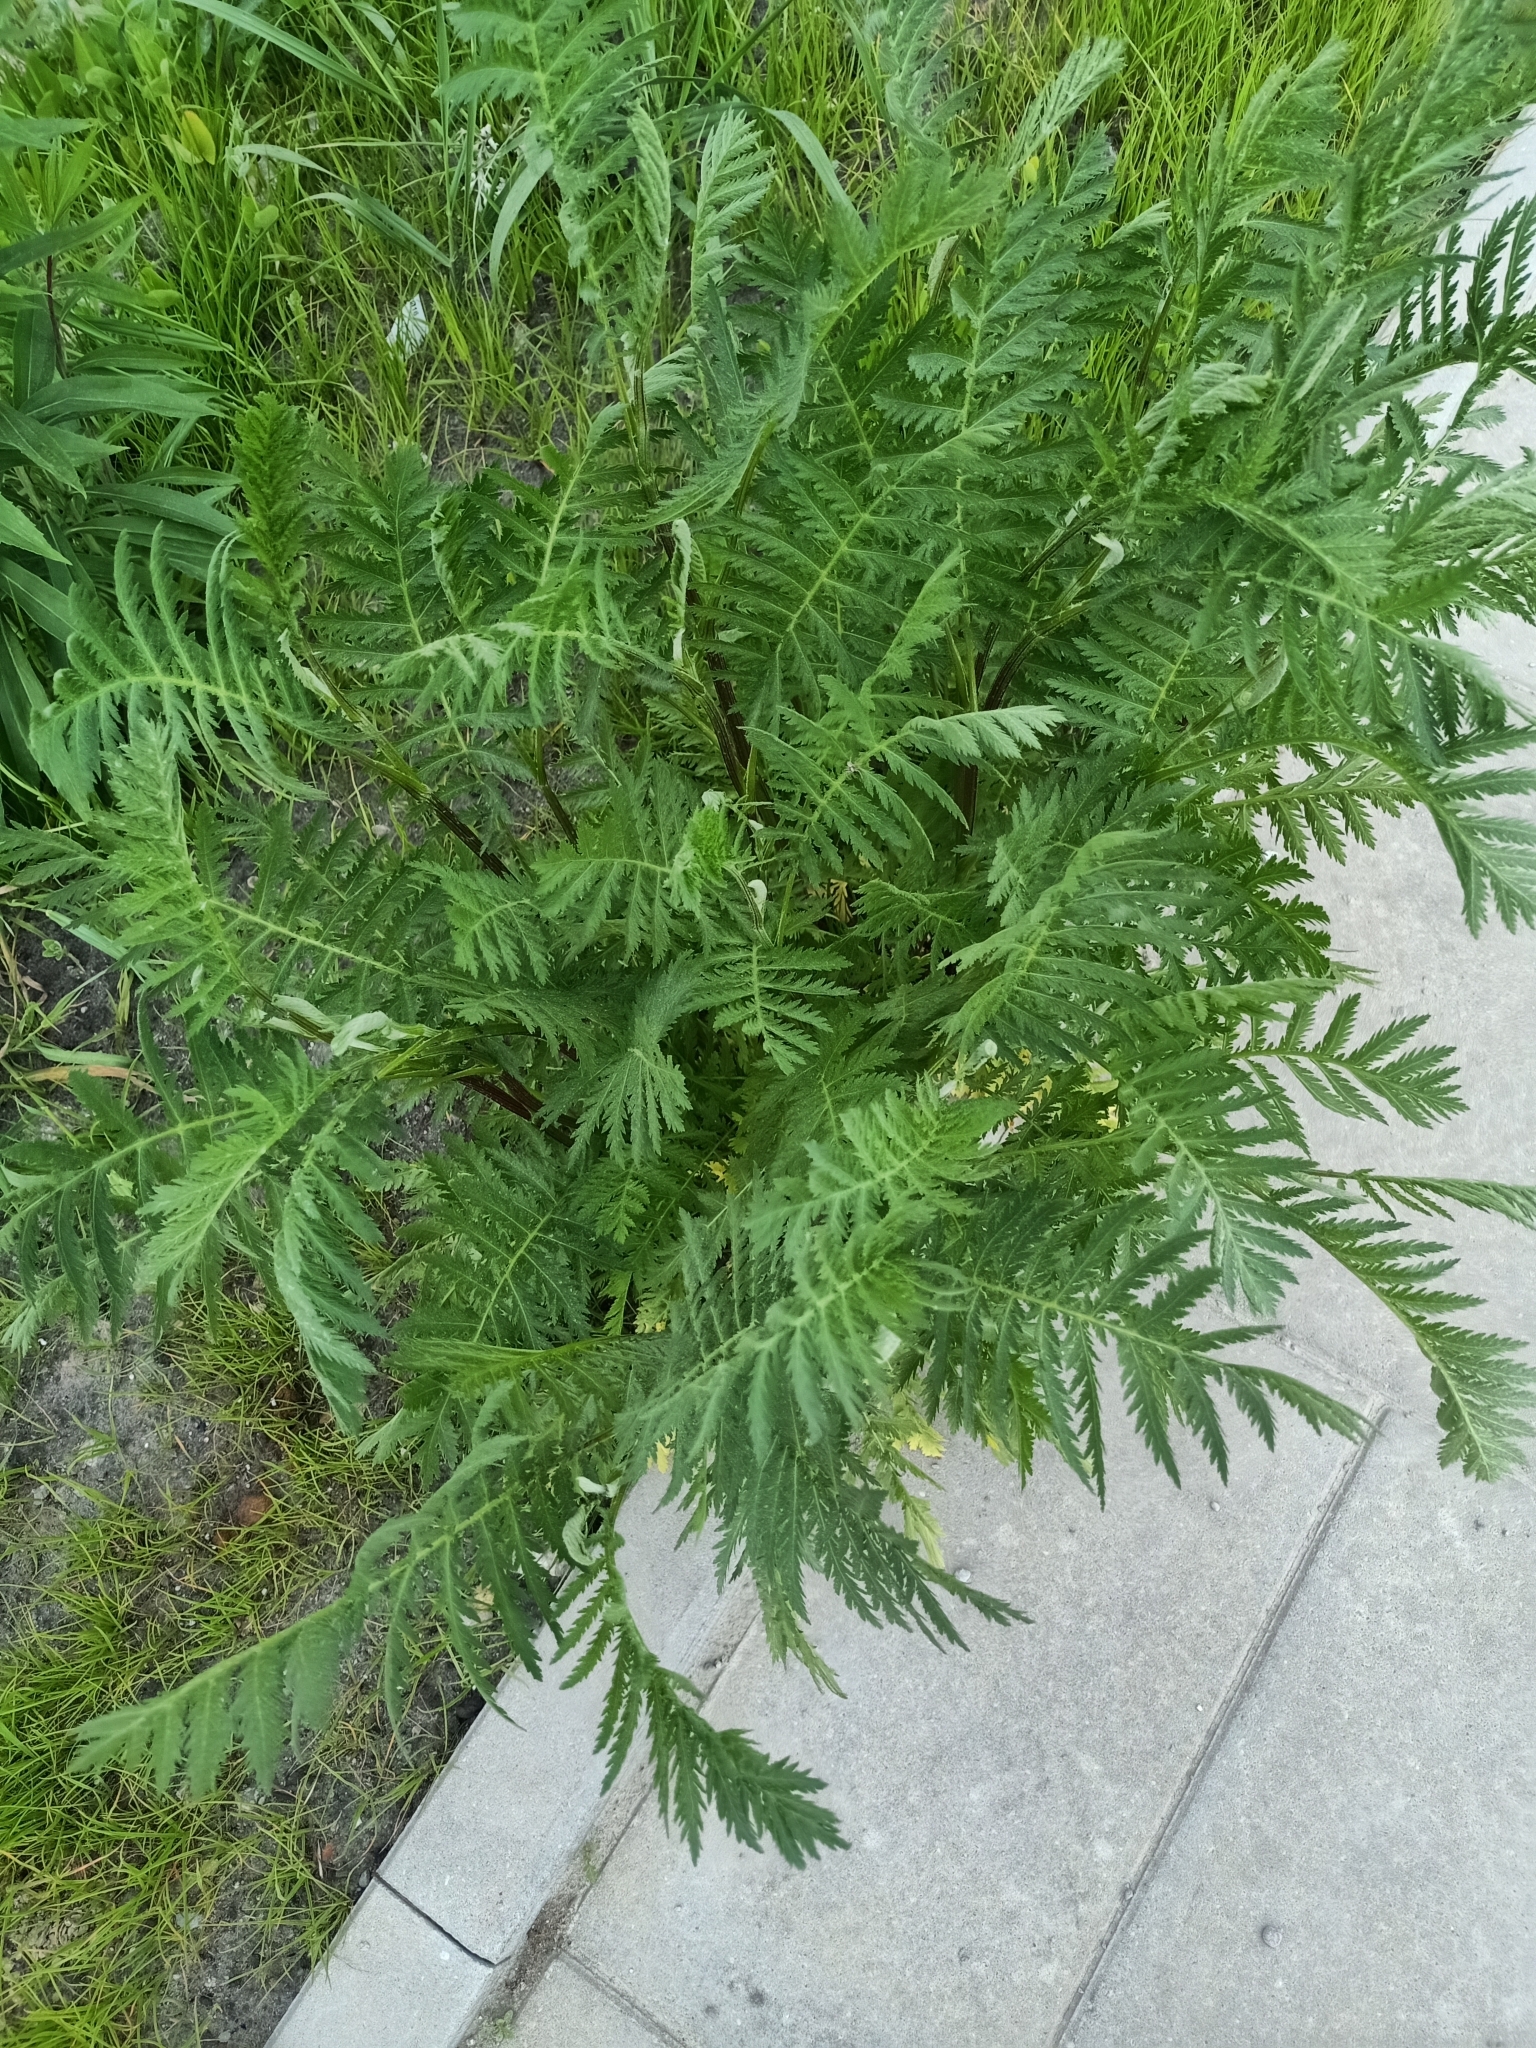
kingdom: Plantae
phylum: Tracheophyta
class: Magnoliopsida
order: Asterales
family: Asteraceae
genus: Tanacetum
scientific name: Tanacetum vulgare
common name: Common tansy
